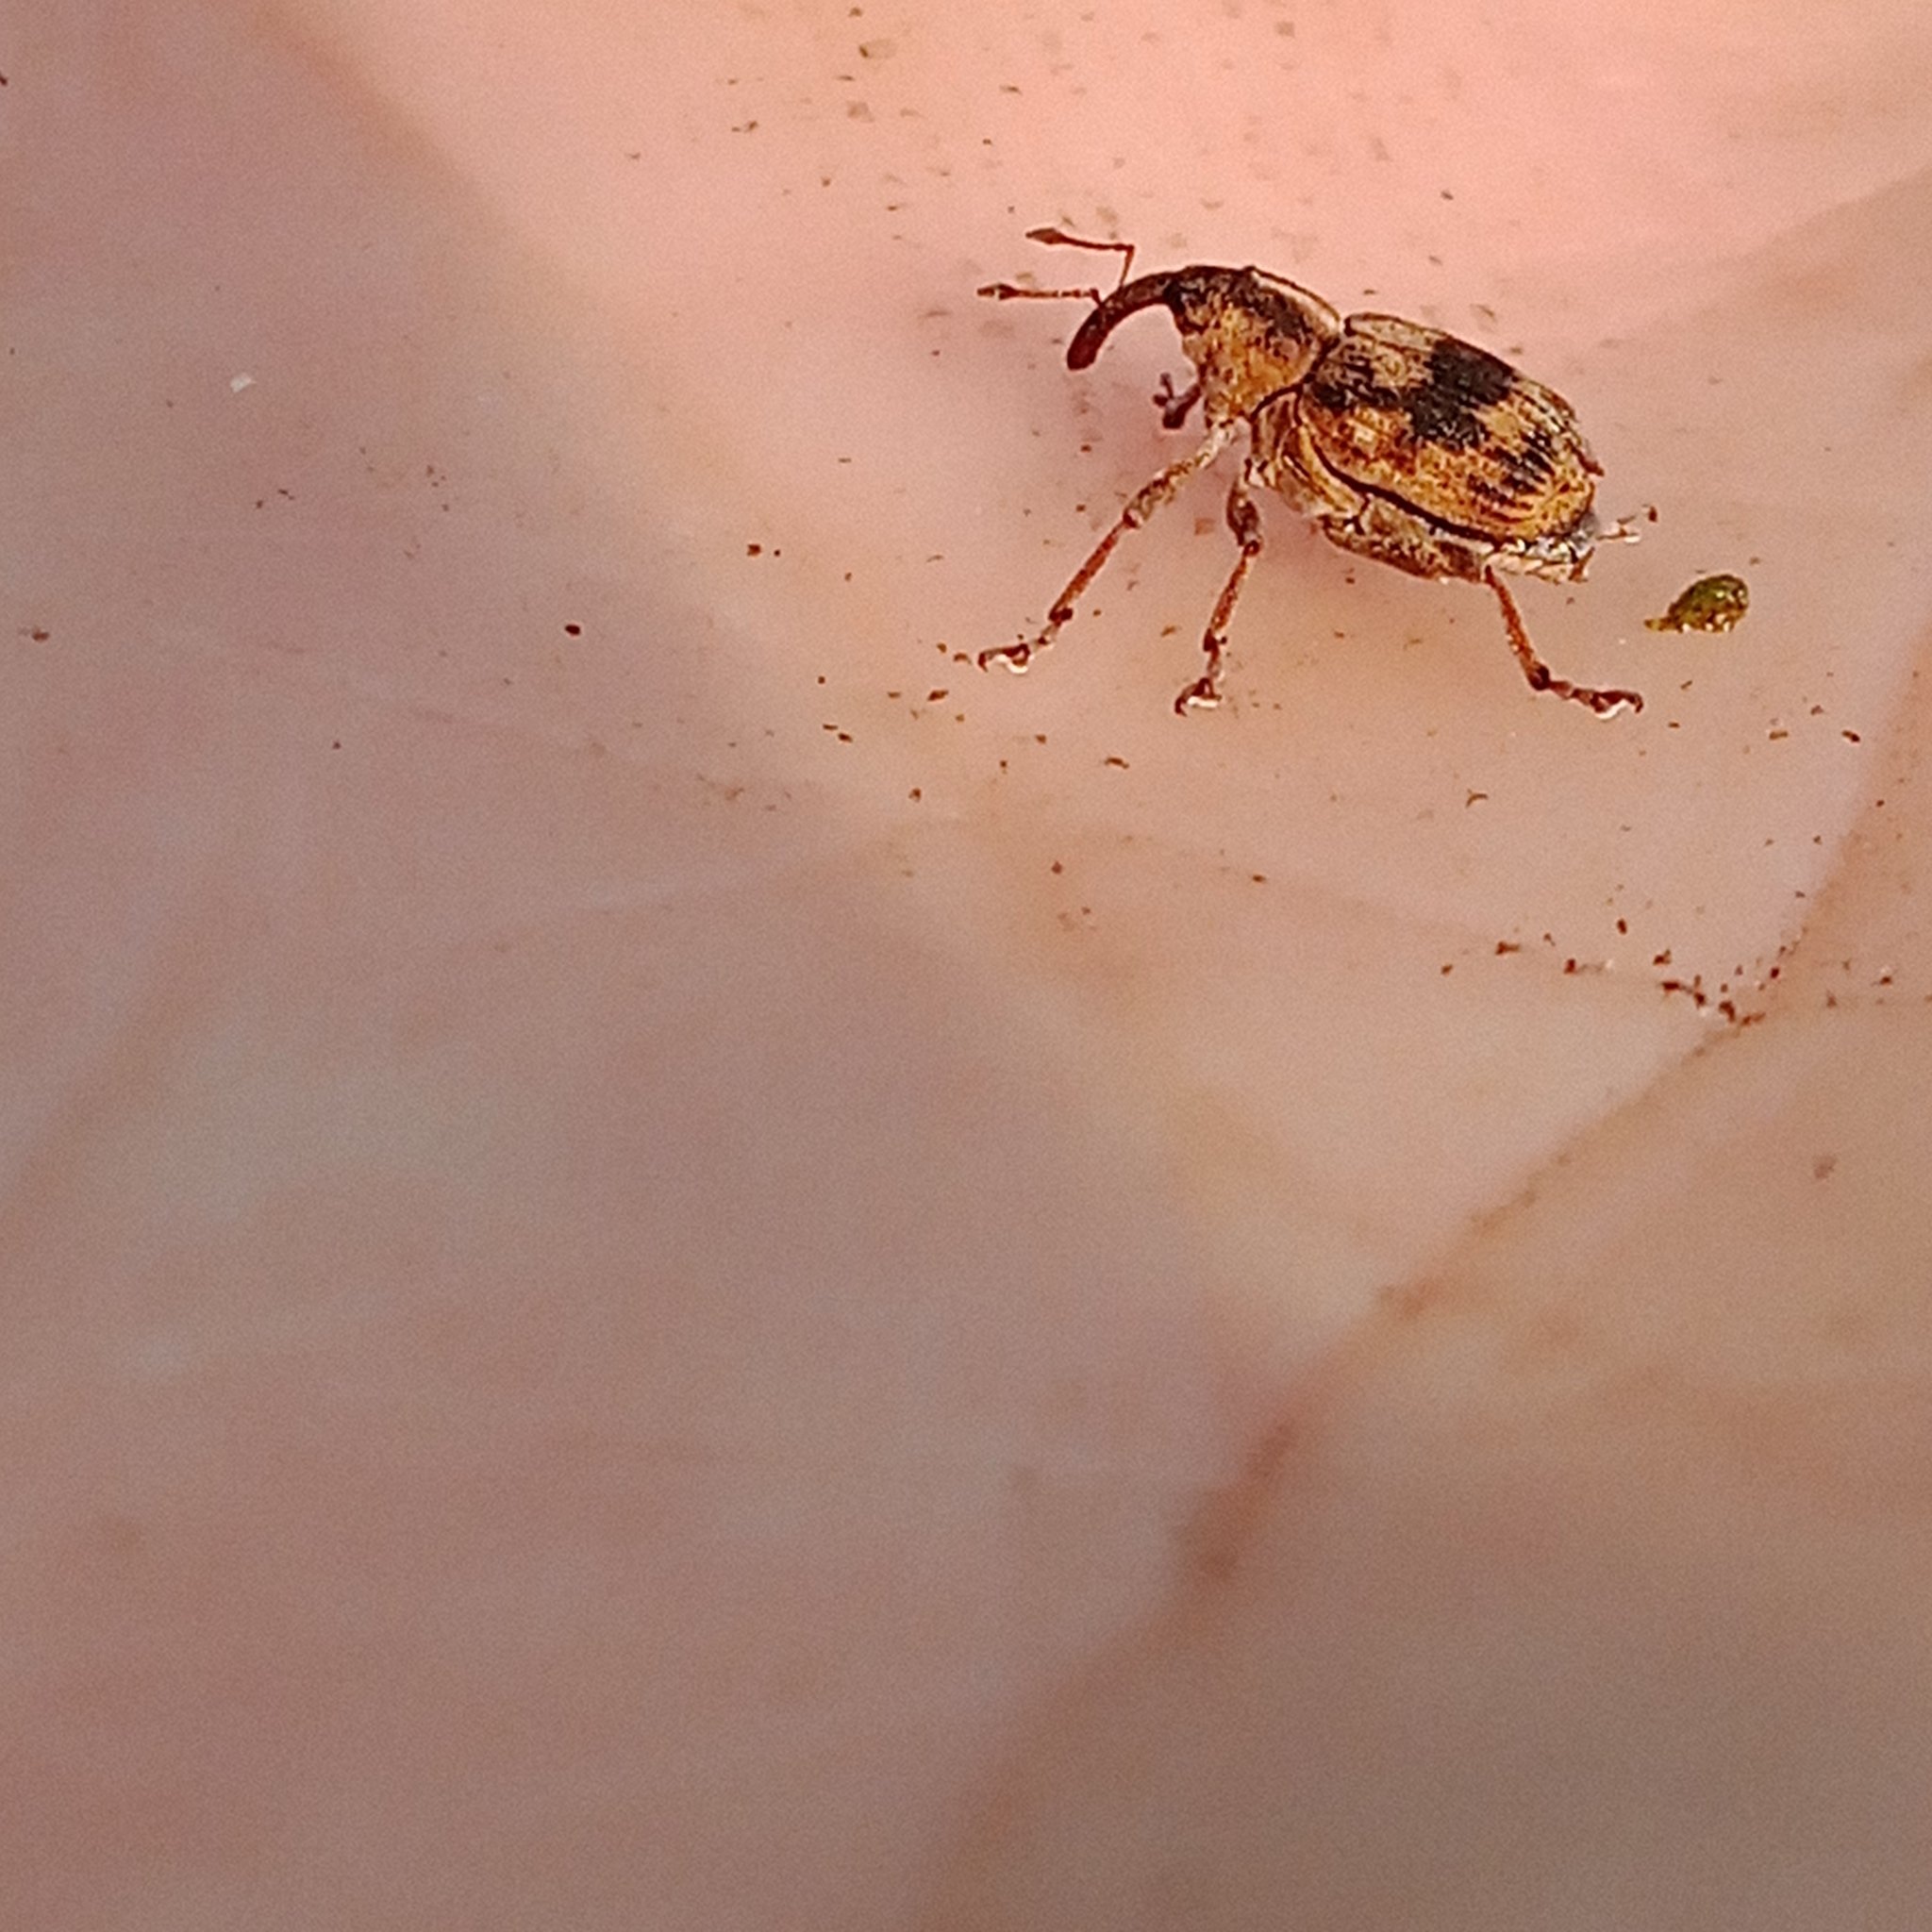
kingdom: Animalia
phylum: Arthropoda
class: Insecta
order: Coleoptera
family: Curculionidae
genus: Tapinotus
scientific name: Tapinotus sellatus
